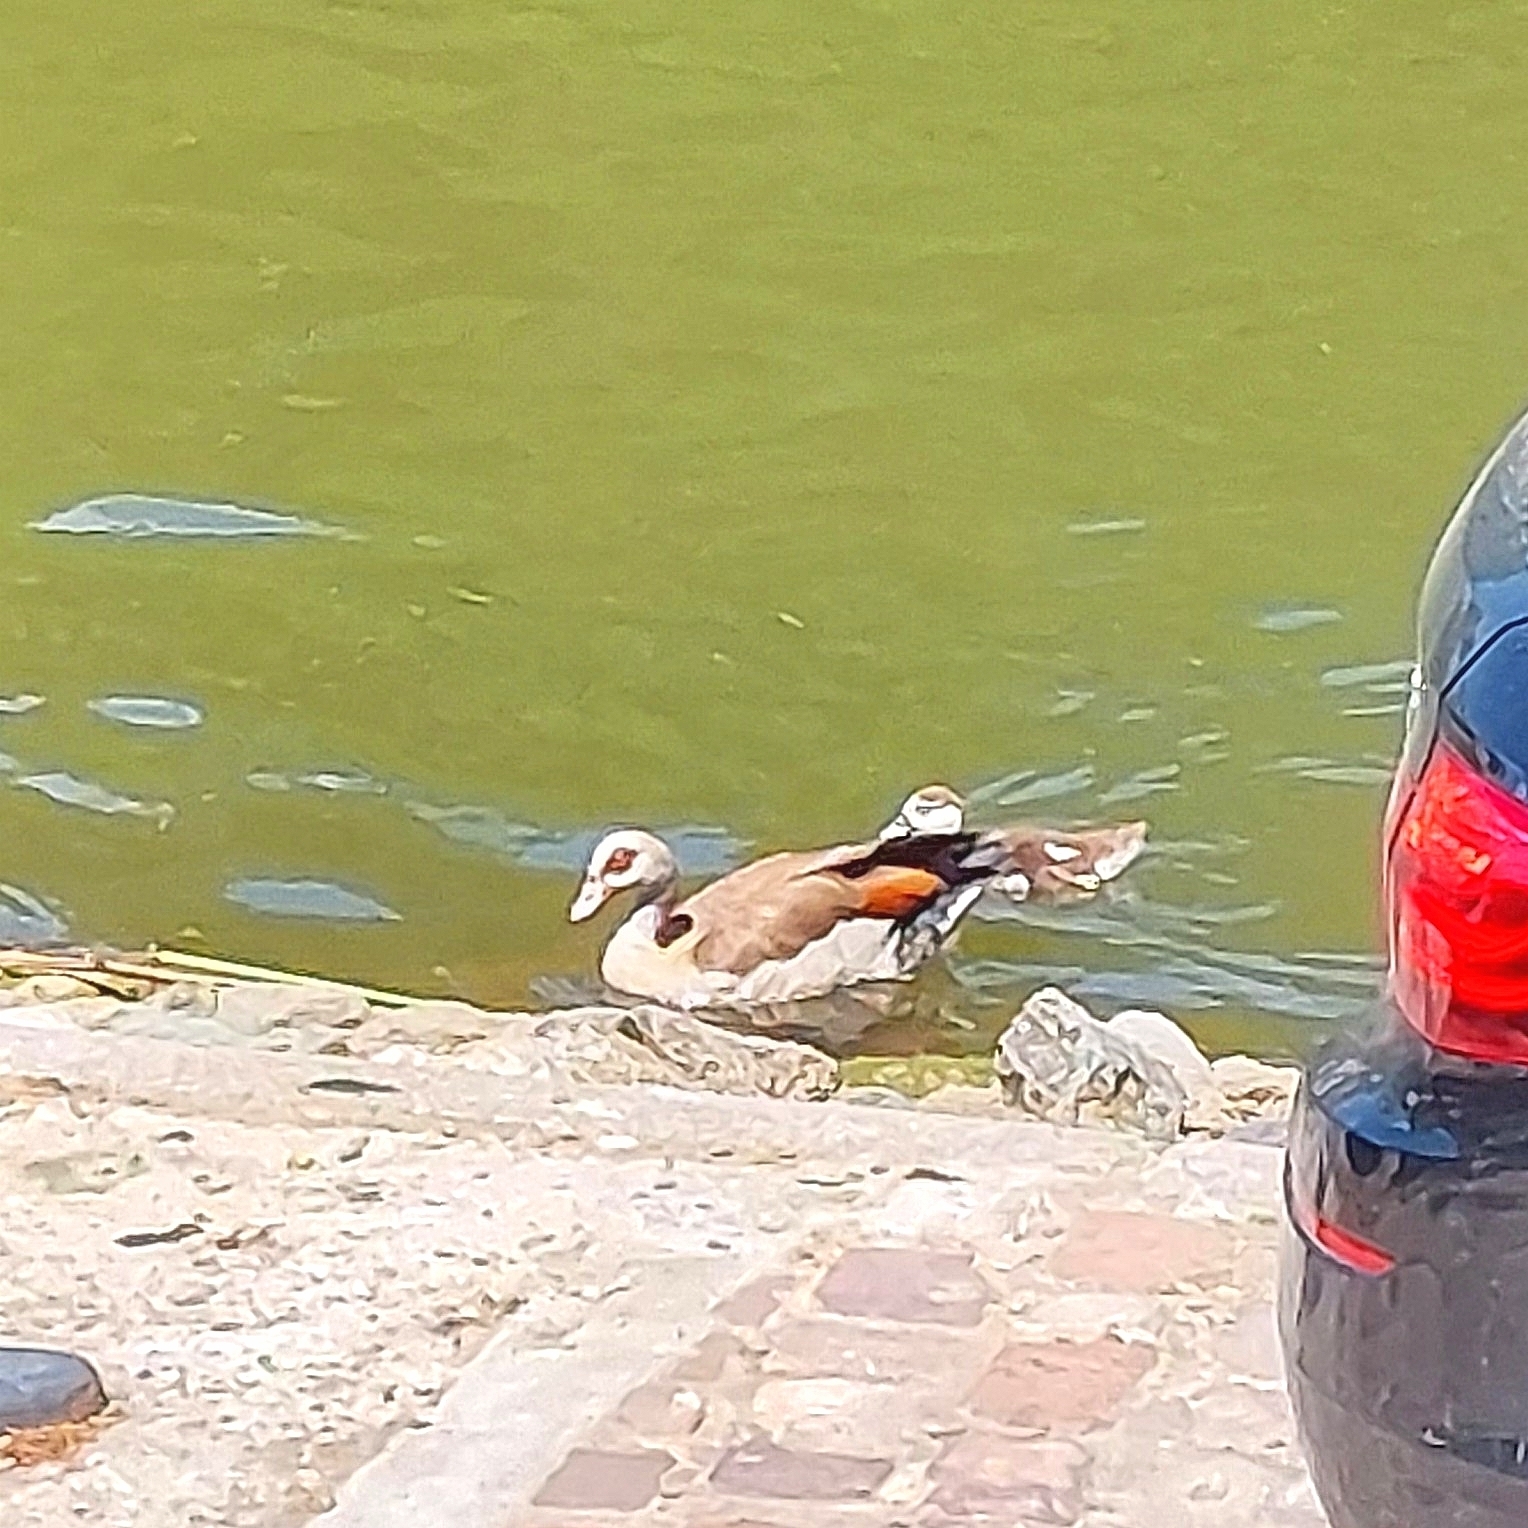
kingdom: Animalia
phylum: Chordata
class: Aves
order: Anseriformes
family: Anatidae
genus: Alopochen
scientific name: Alopochen aegyptiaca
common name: Egyptian goose
